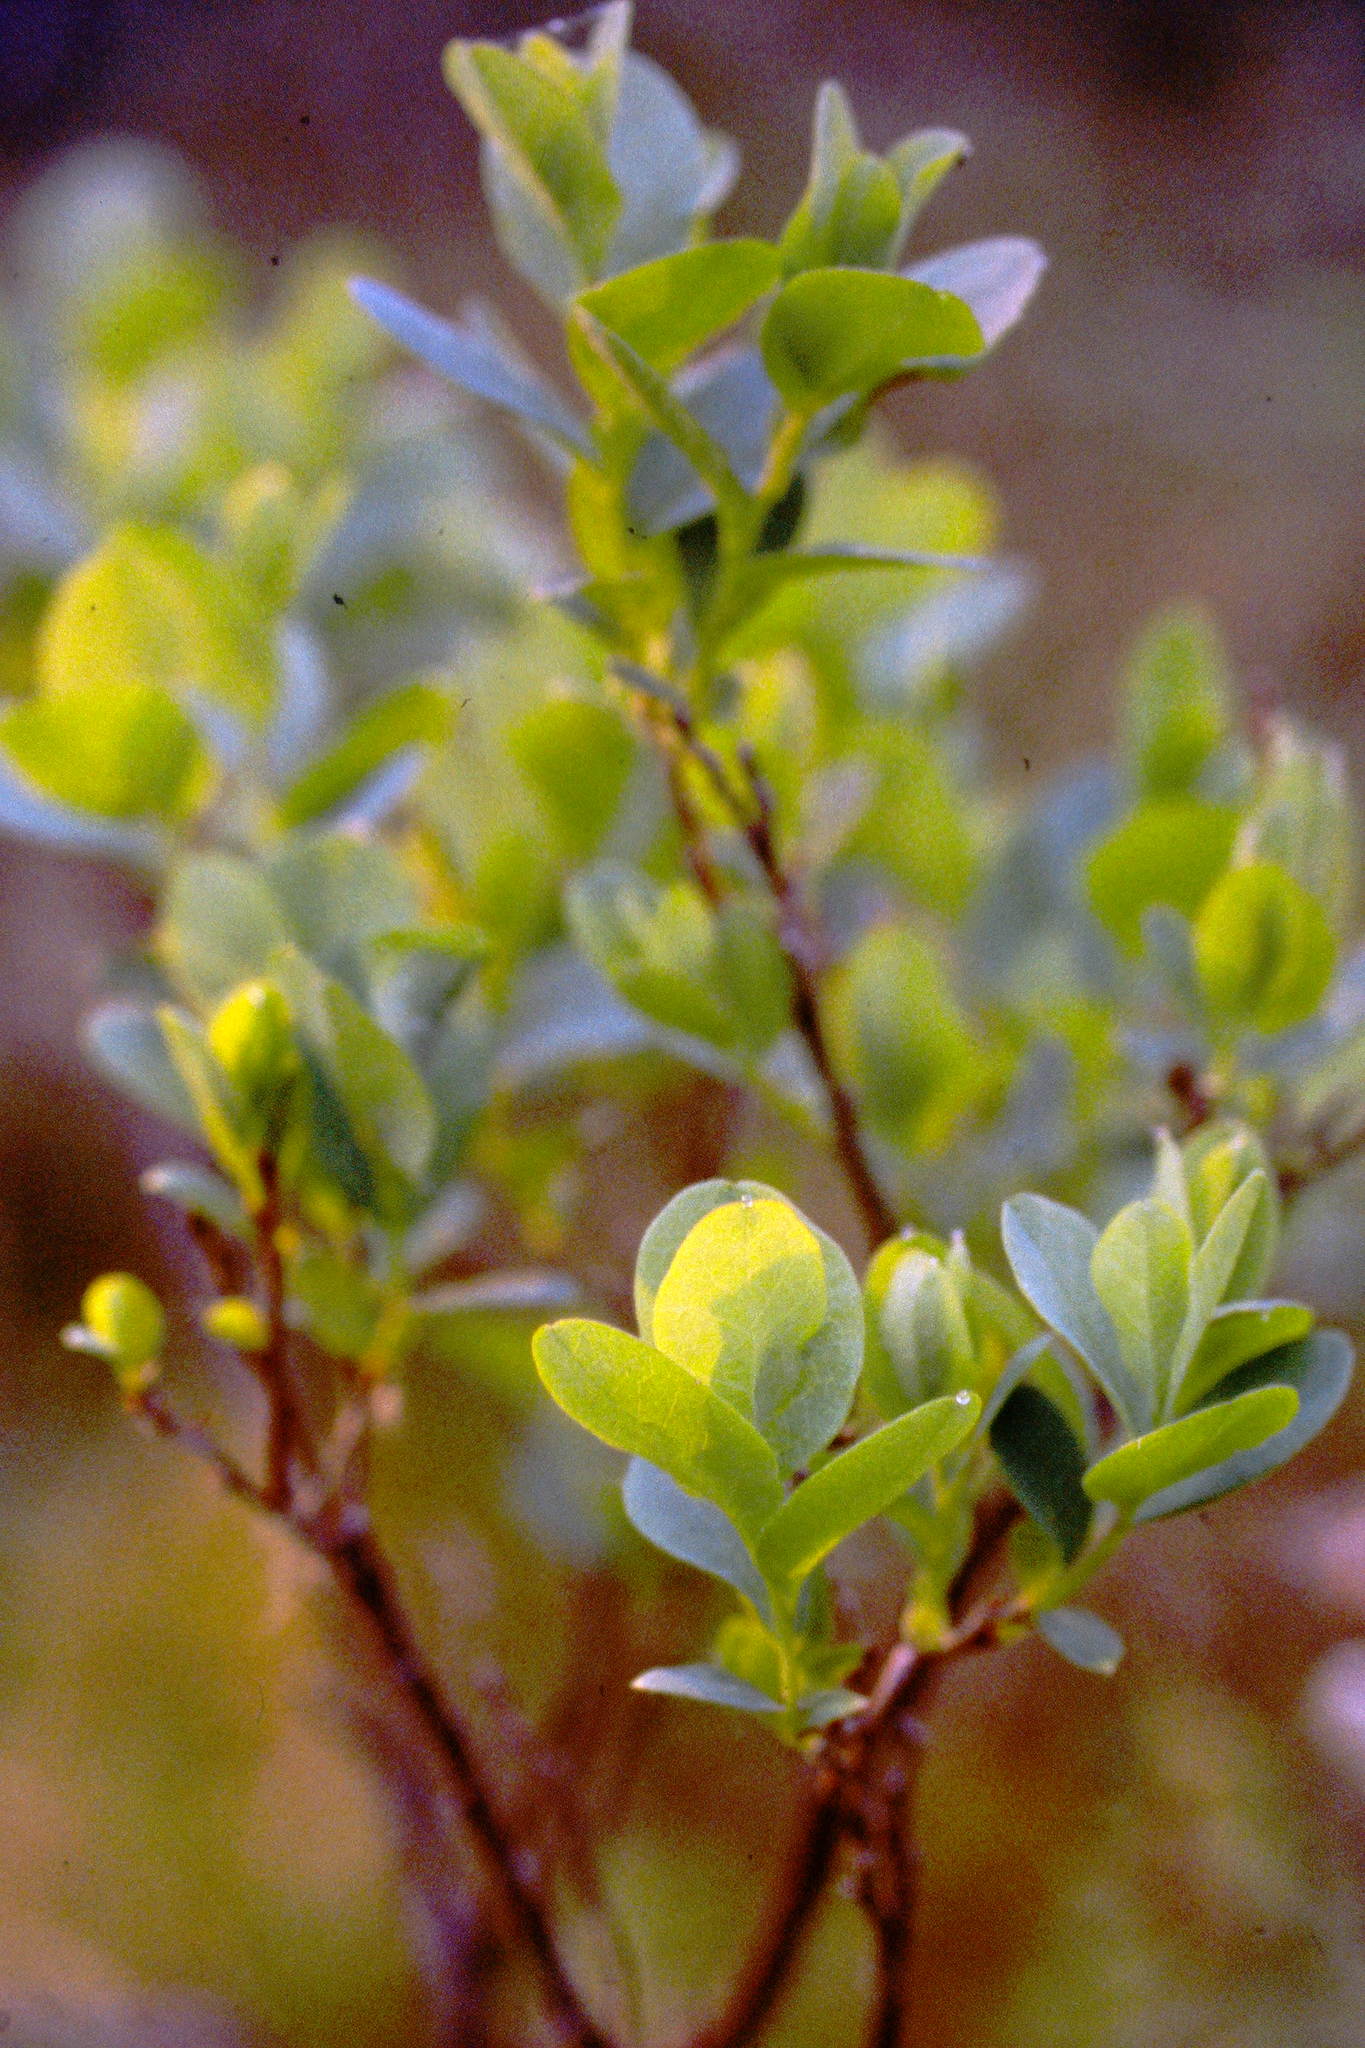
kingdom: Plantae
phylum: Tracheophyta
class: Magnoliopsida
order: Ericales
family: Ericaceae
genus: Vaccinium
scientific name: Vaccinium uliginosum
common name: Bog bilberry
